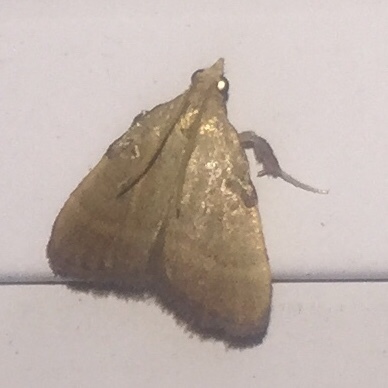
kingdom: Animalia
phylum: Arthropoda
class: Insecta
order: Lepidoptera
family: Pyralidae
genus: Condylolomia
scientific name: Condylolomia participialis
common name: Drab condylolomia moth
